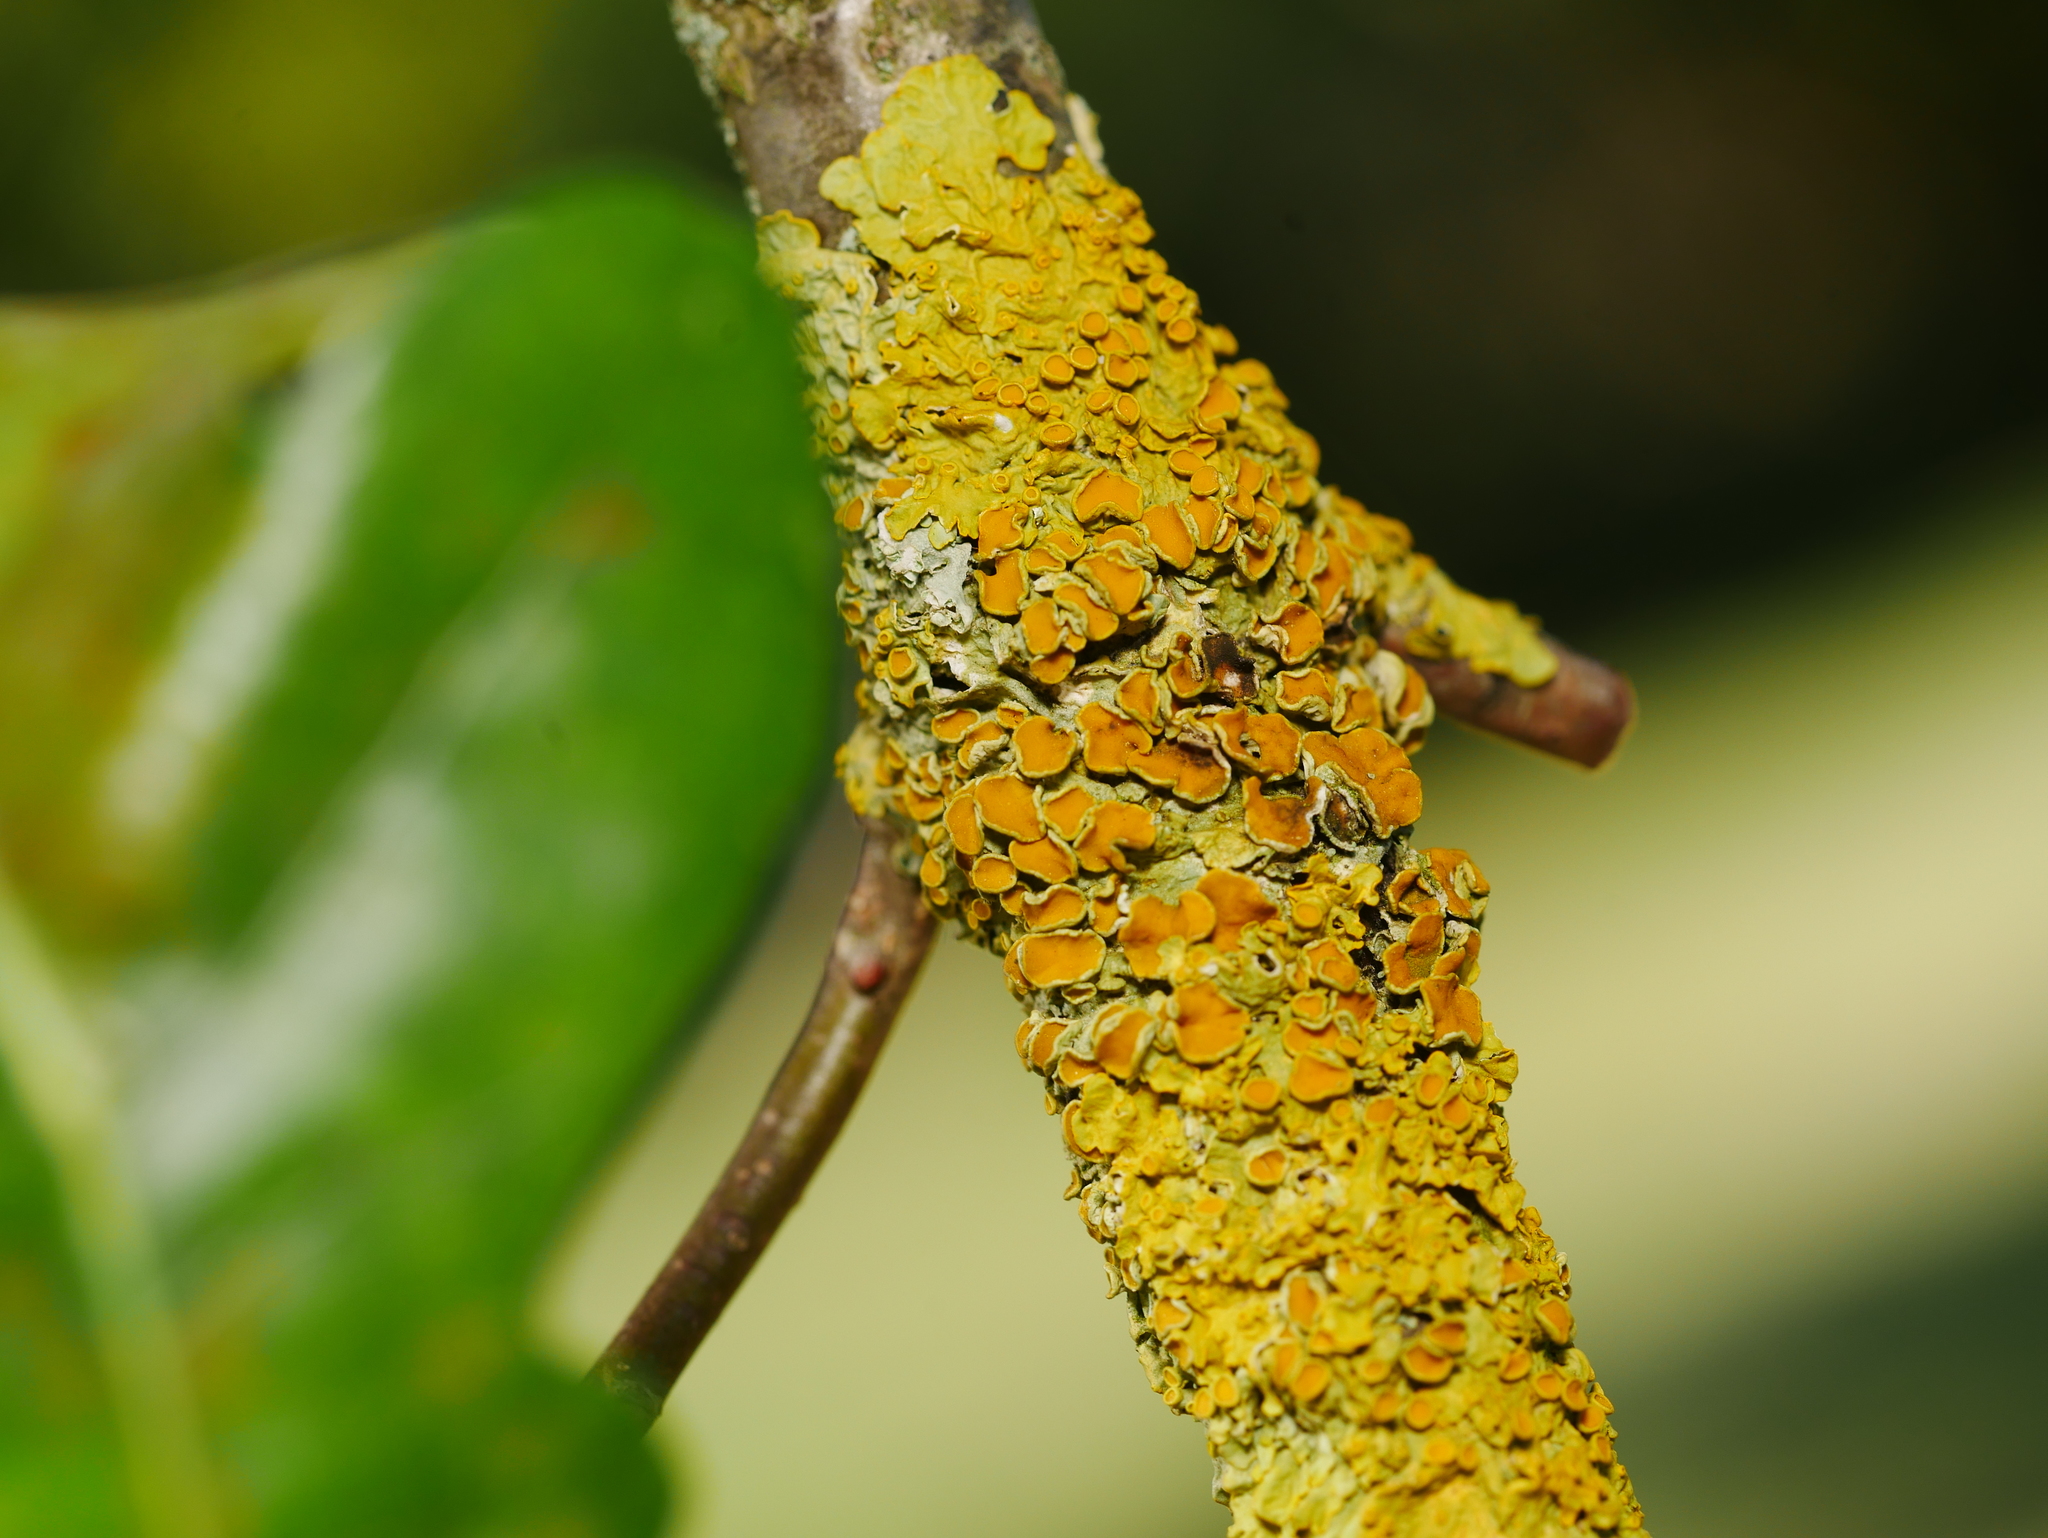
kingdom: Fungi
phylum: Ascomycota
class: Lecanoromycetes
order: Teloschistales
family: Teloschistaceae
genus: Xanthoria
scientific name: Xanthoria parietina
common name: Common orange lichen
